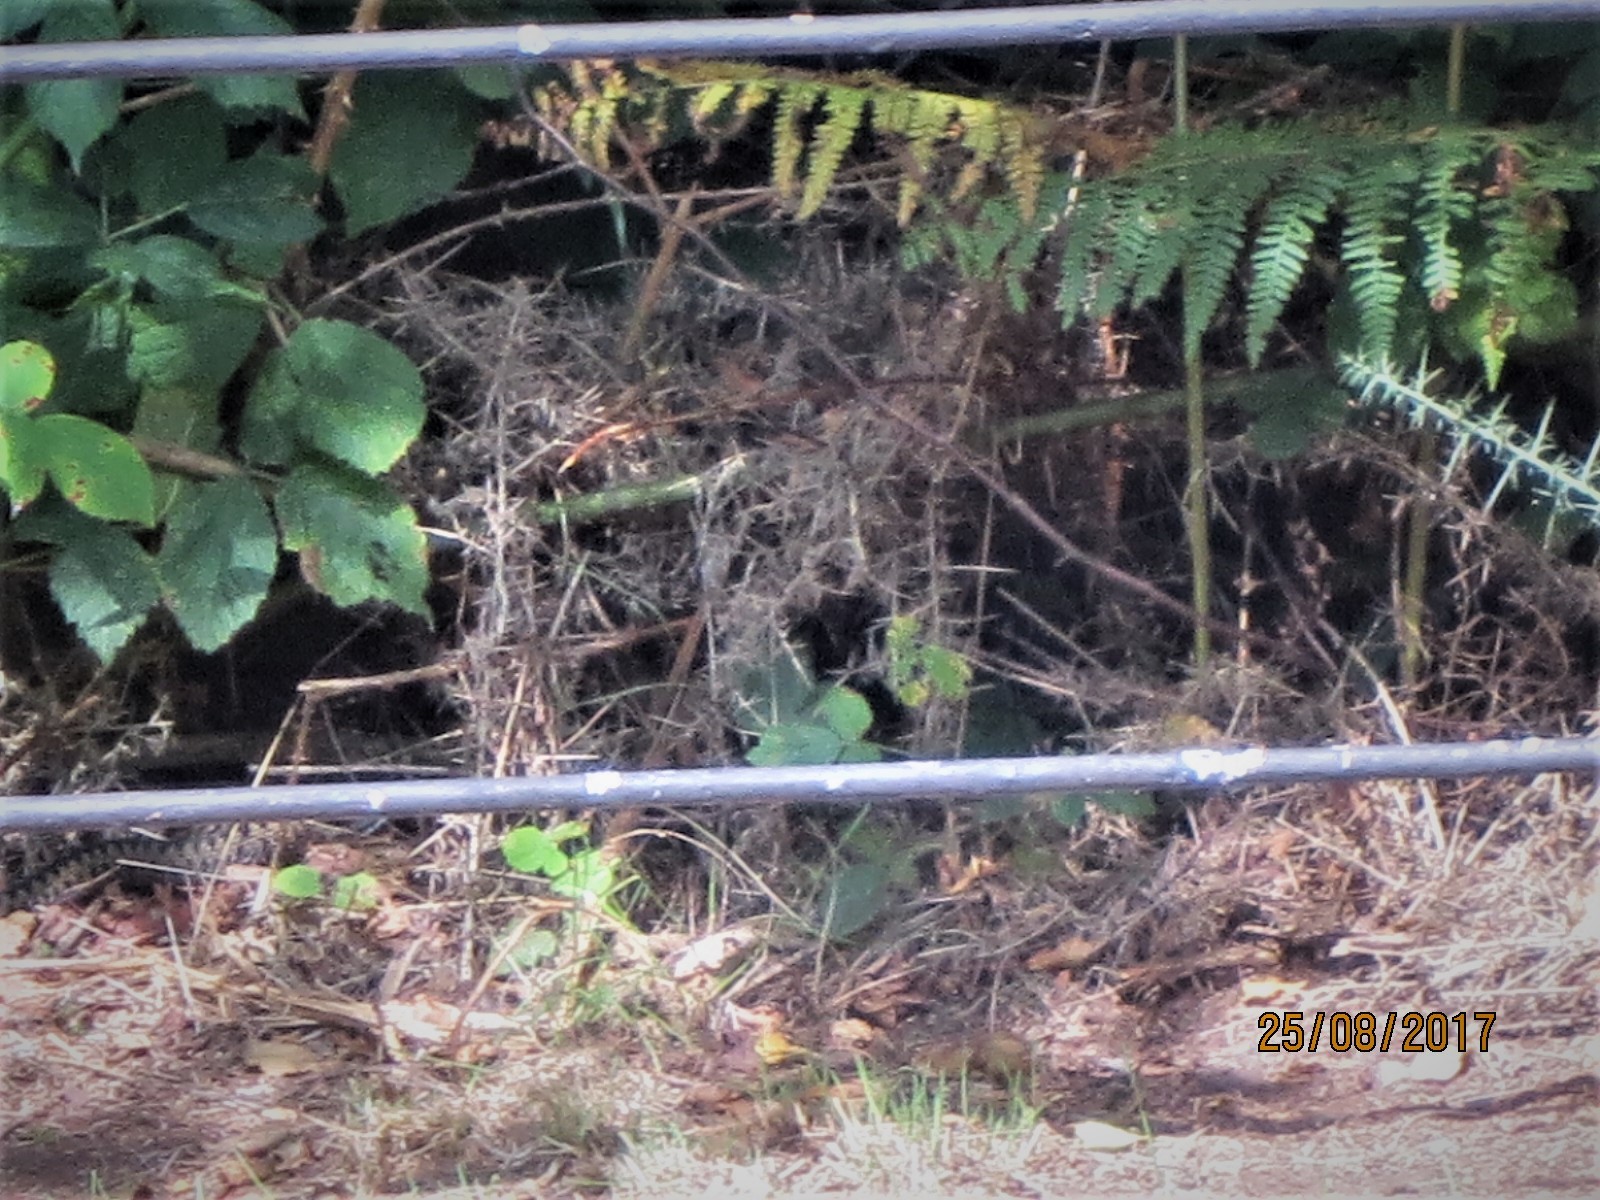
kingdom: Animalia
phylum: Chordata
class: Squamata
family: Viperidae
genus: Vipera
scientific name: Vipera berus
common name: Adder
